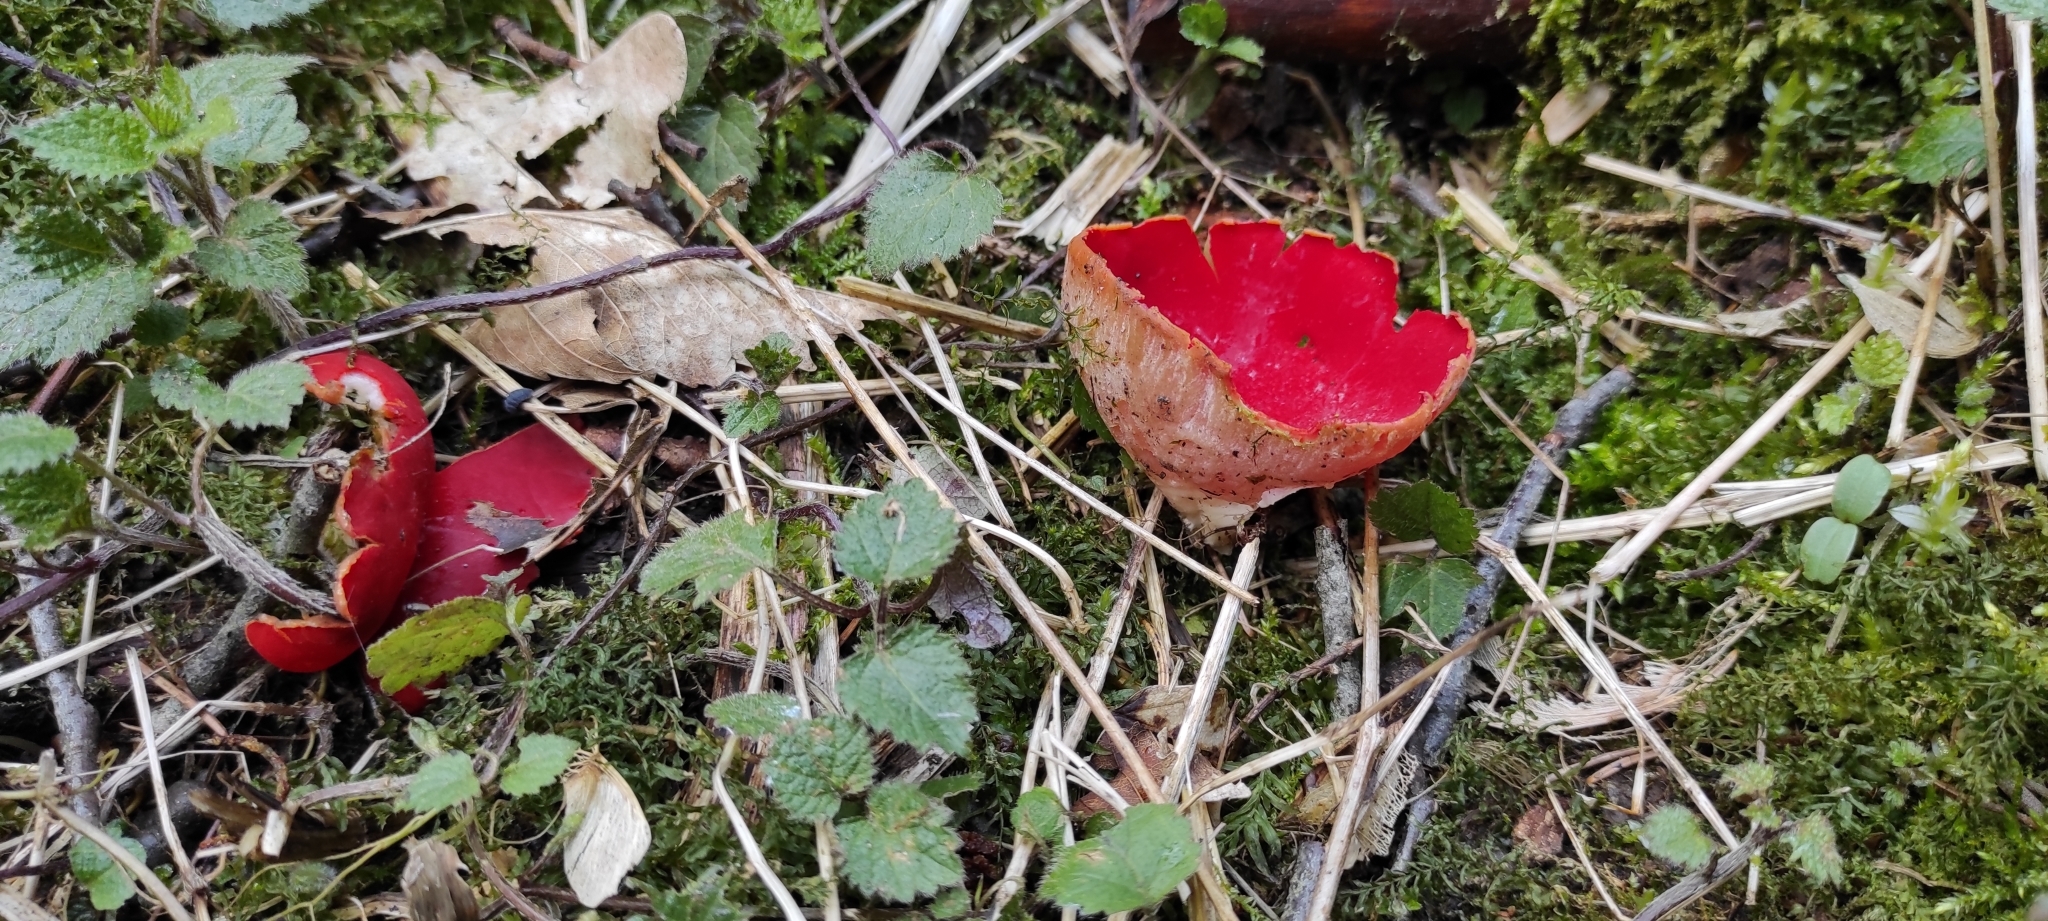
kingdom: Fungi
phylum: Ascomycota
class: Pezizomycetes
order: Pezizales
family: Sarcoscyphaceae
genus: Sarcoscypha
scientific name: Sarcoscypha
